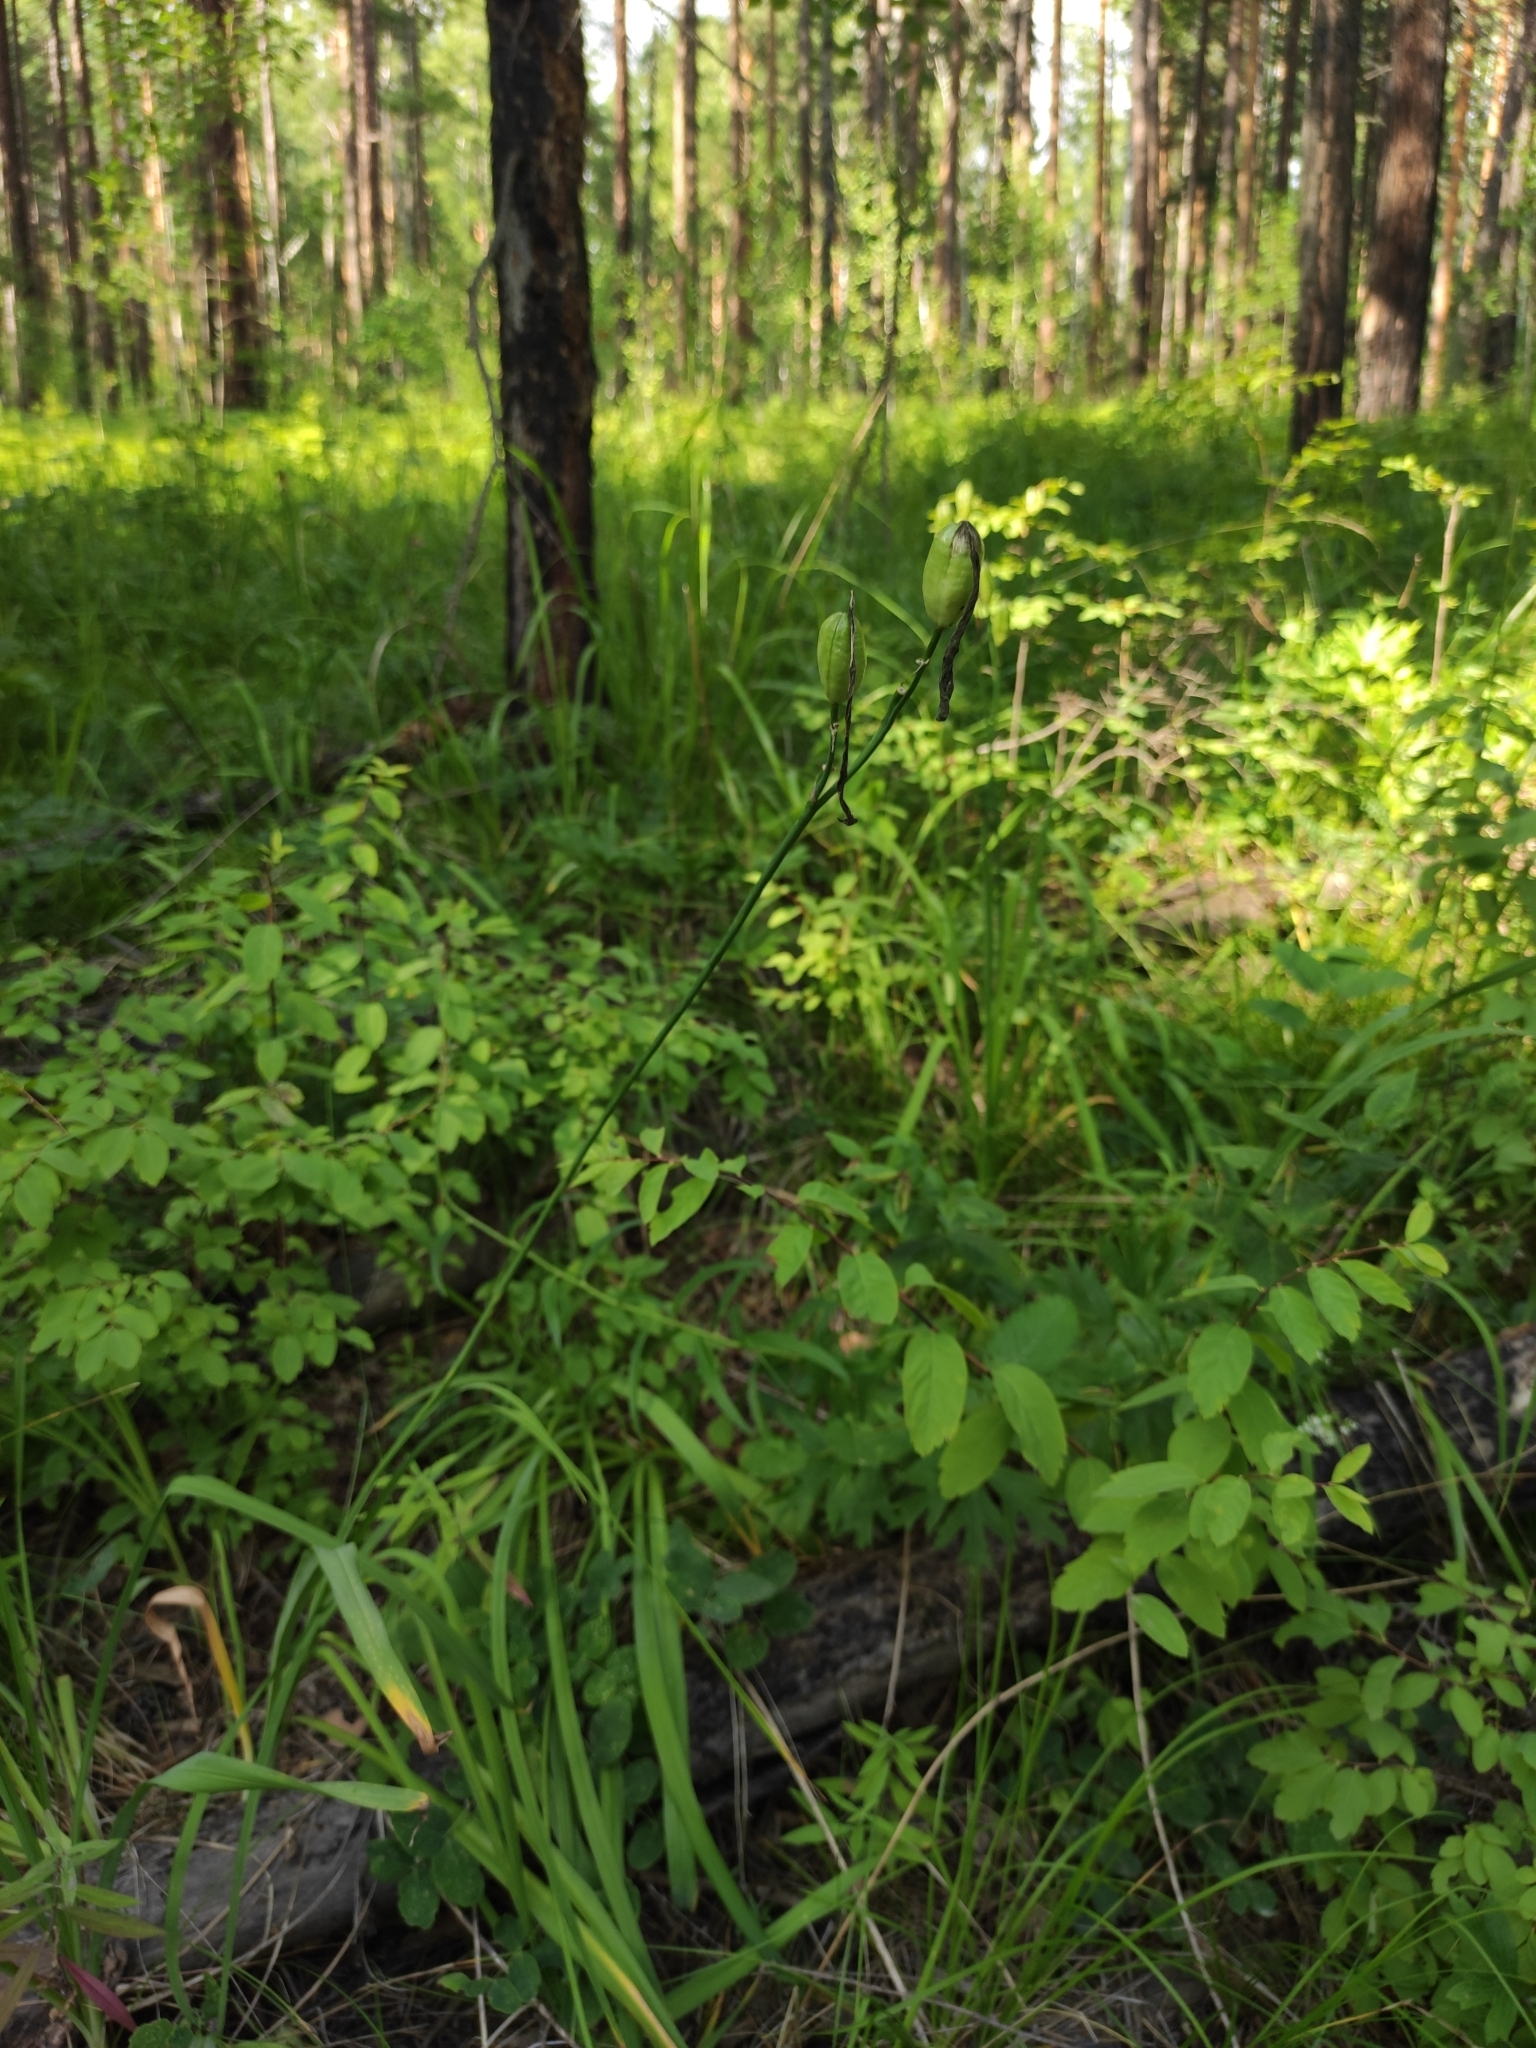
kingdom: Plantae
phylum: Tracheophyta
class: Liliopsida
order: Asparagales
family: Asphodelaceae
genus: Hemerocallis
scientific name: Hemerocallis minor
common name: Small daylily
